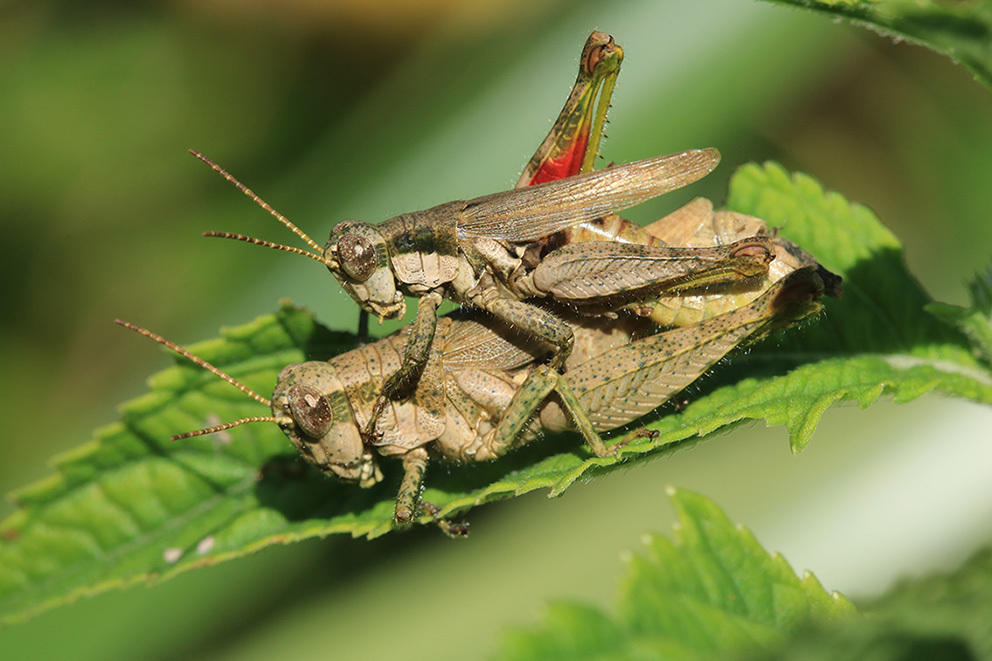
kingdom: Animalia
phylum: Arthropoda
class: Insecta
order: Orthoptera
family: Acrididae
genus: Ronderosia
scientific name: Ronderosia bergii
